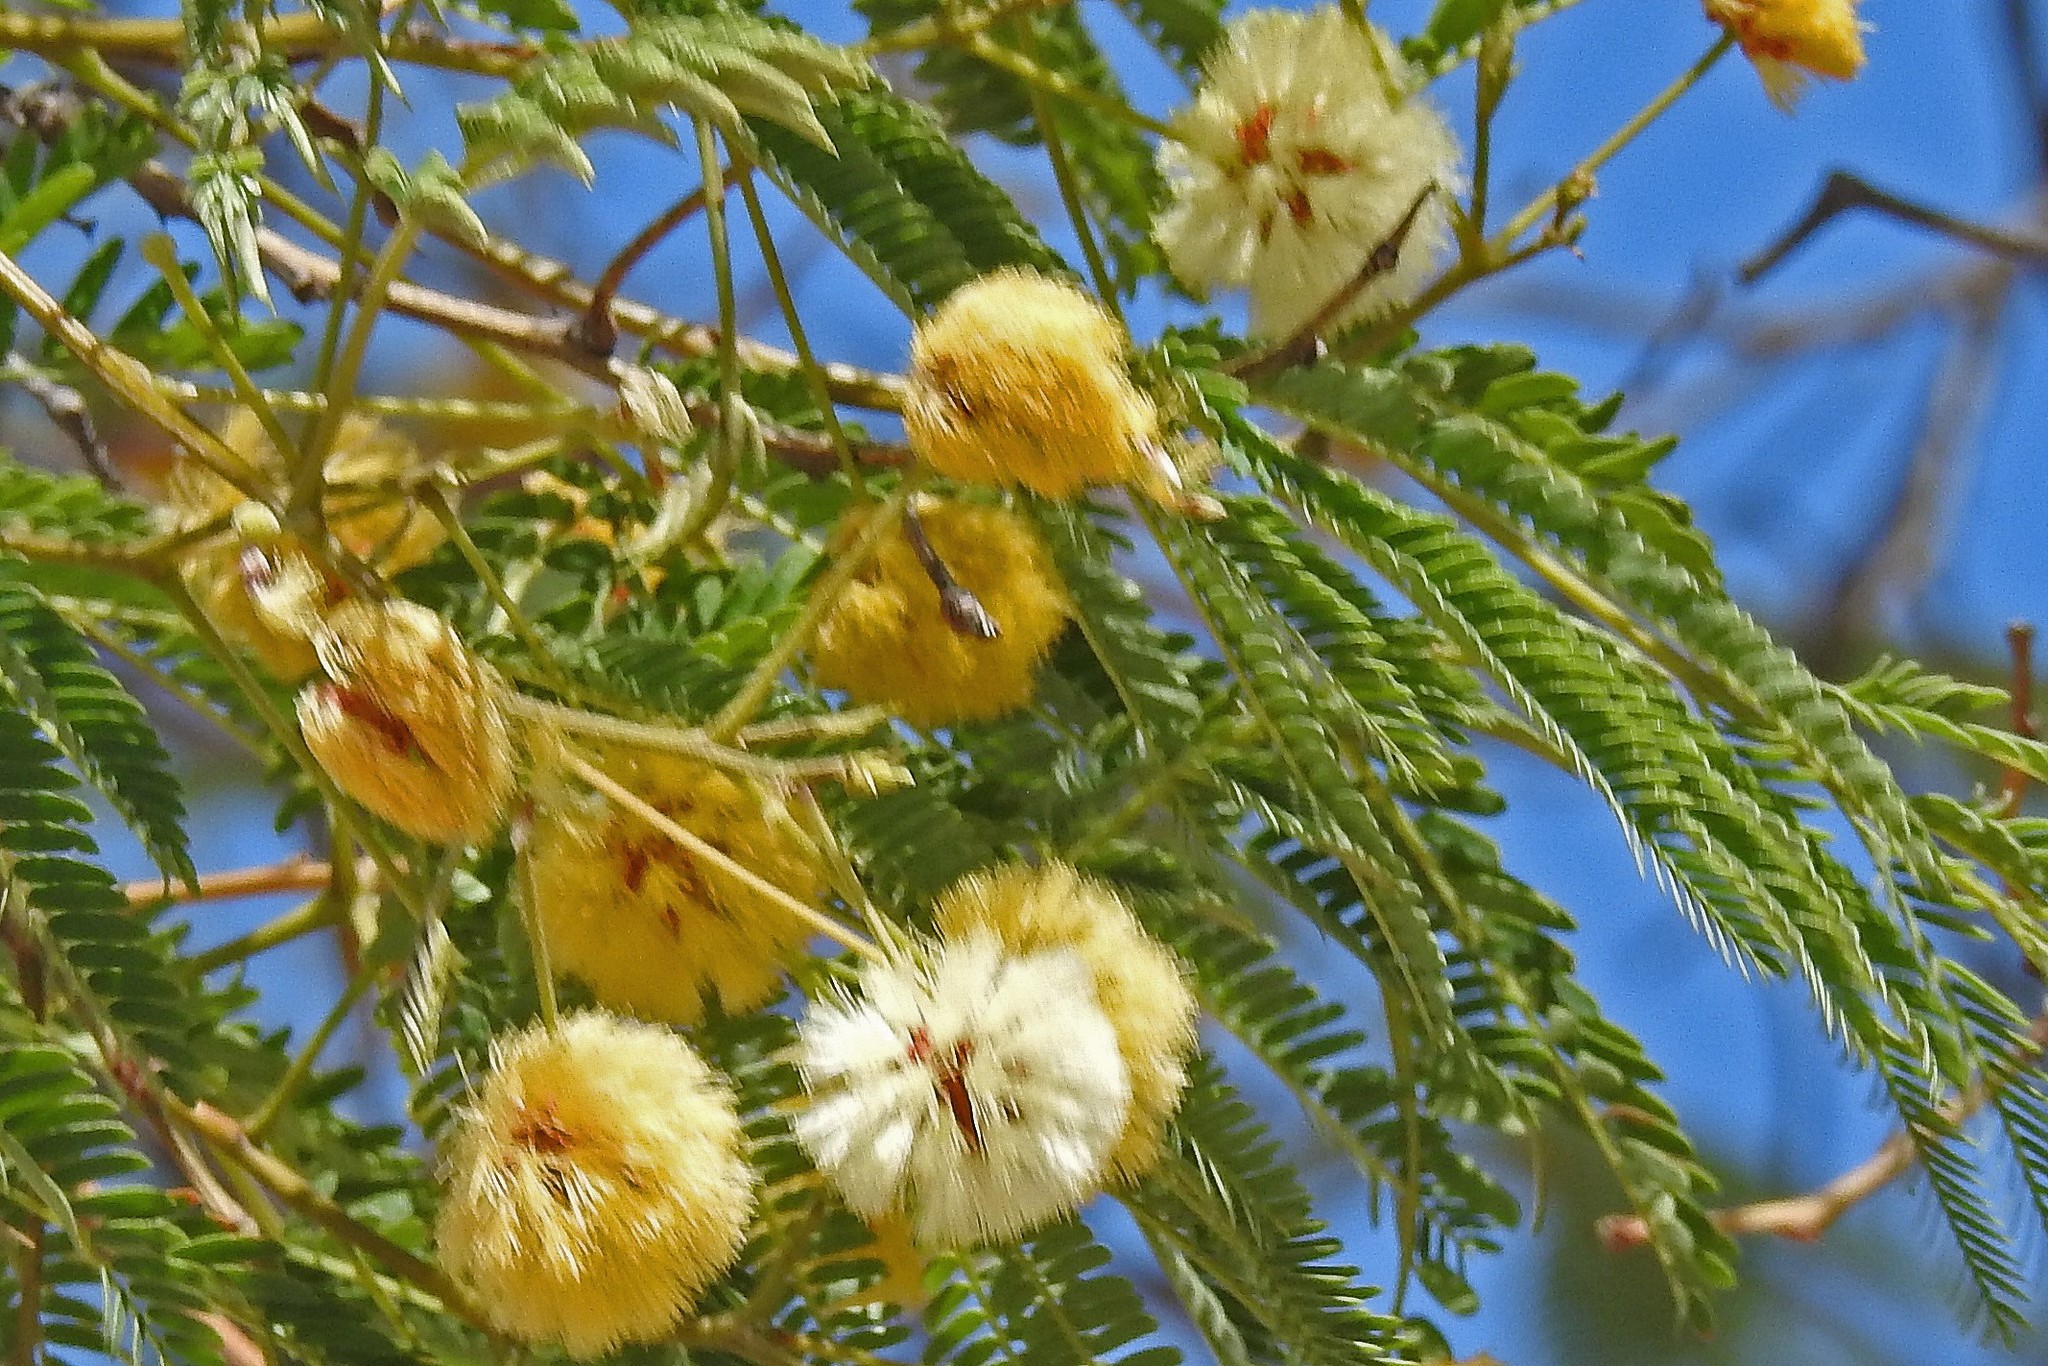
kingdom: Plantae
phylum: Tracheophyta
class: Magnoliopsida
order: Fabales
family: Fabaceae
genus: Parasenegalia
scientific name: Parasenegalia visco
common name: Visco
